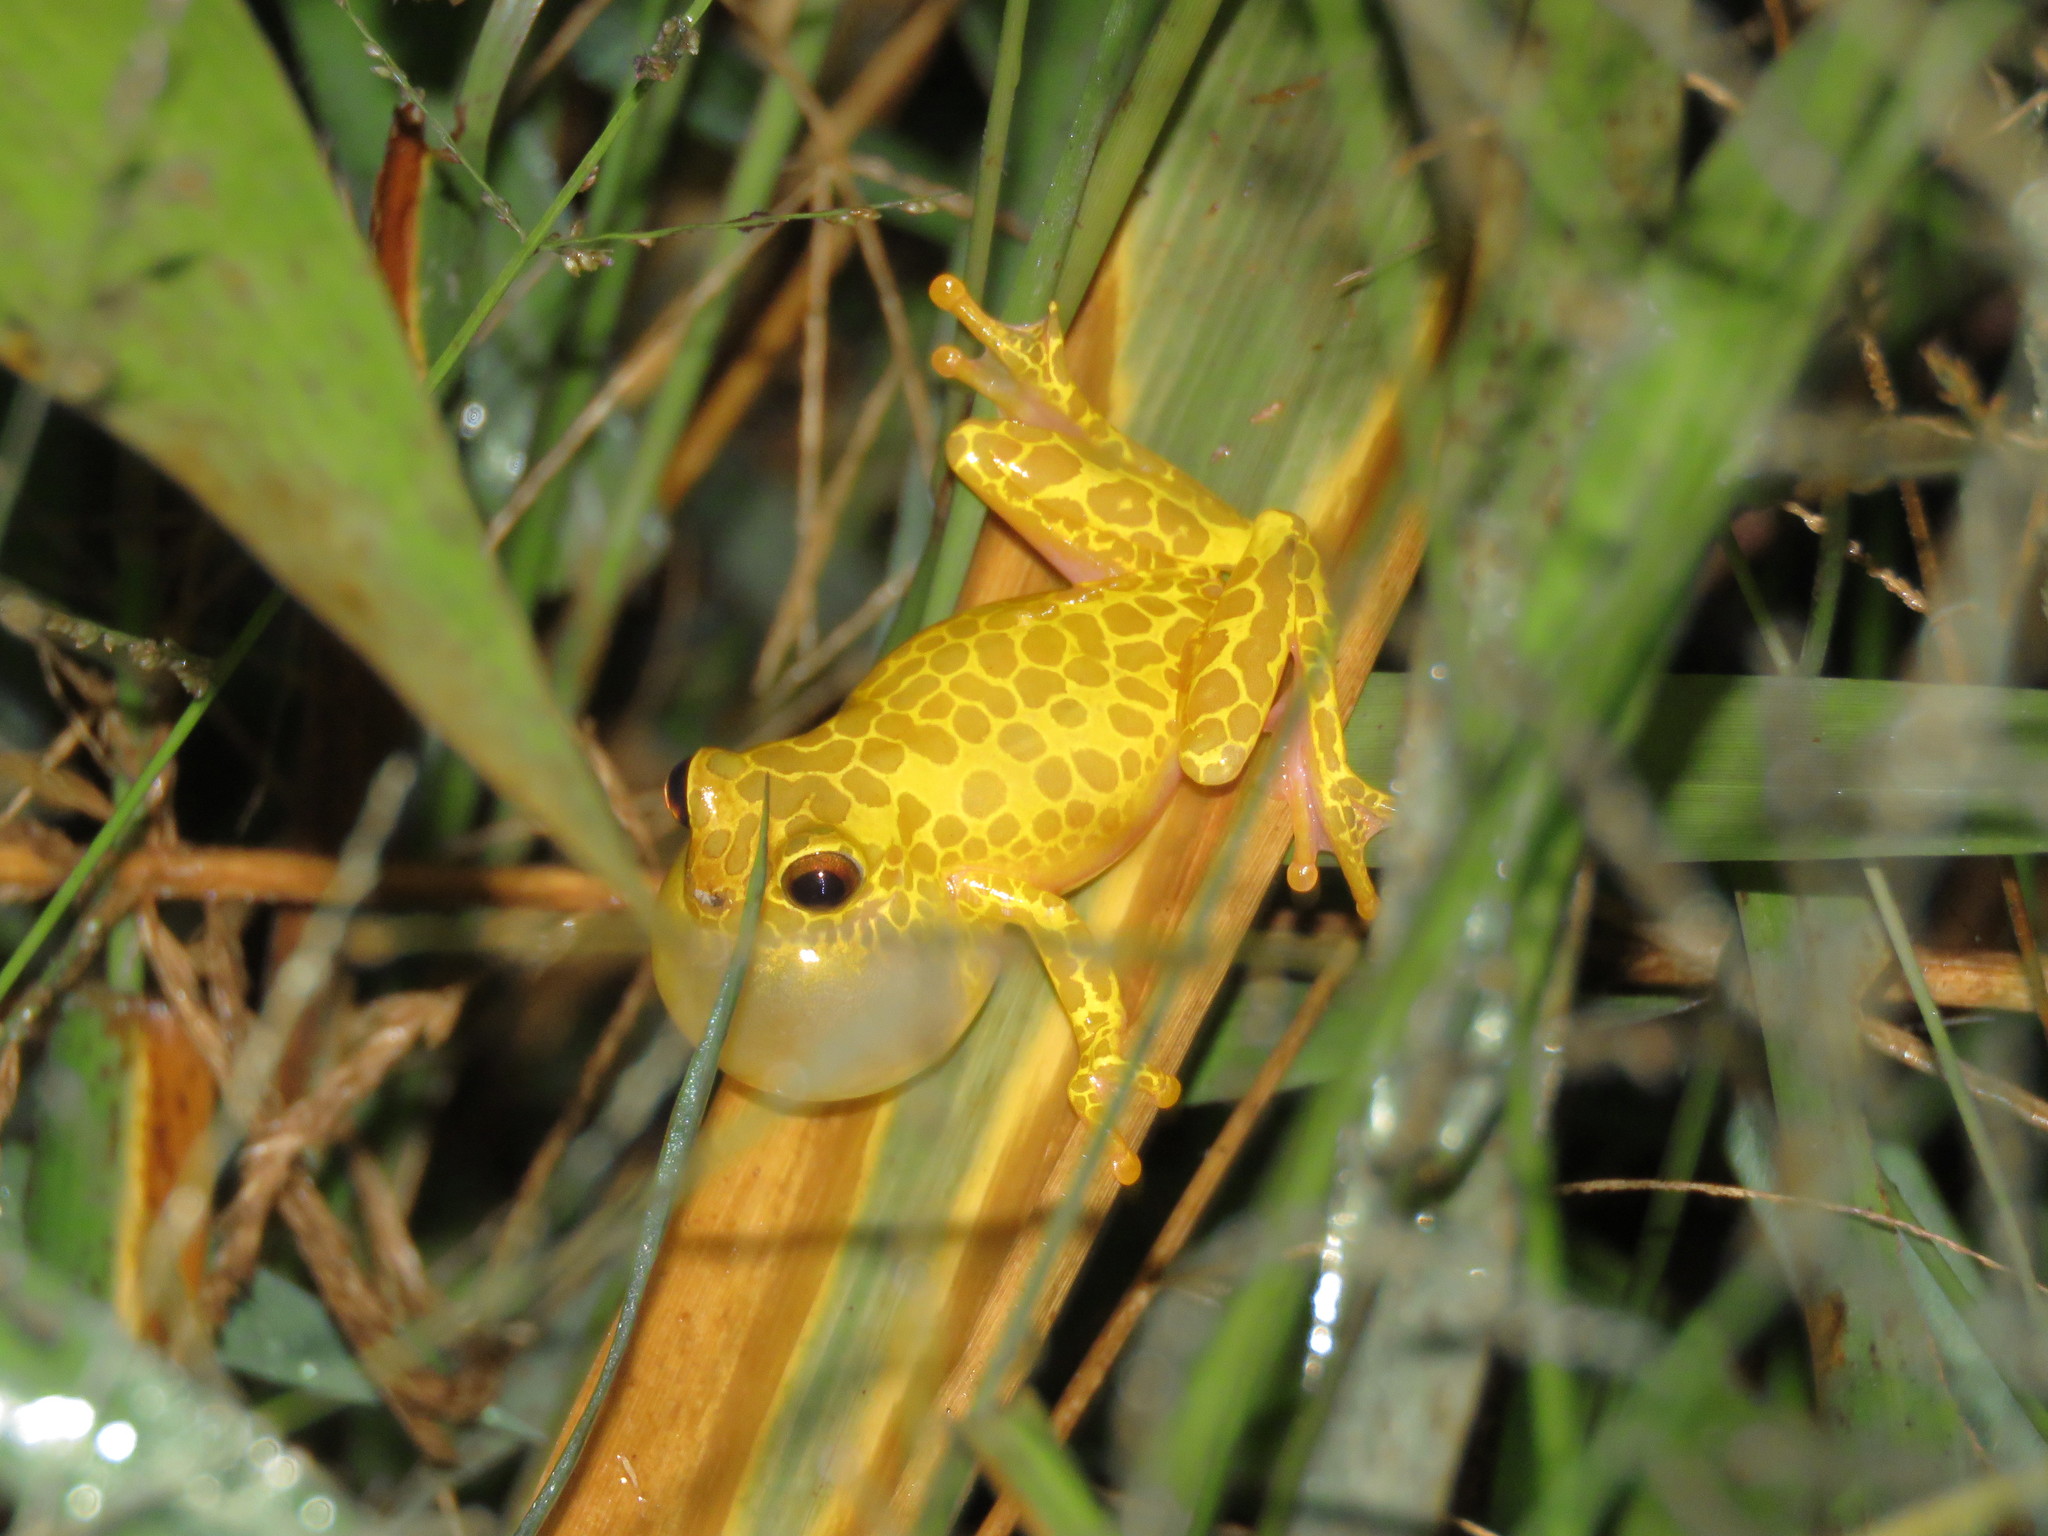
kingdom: Animalia
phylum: Chordata
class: Amphibia
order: Anura
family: Hylidae
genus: Dendropsophus
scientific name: Dendropsophus arndti
